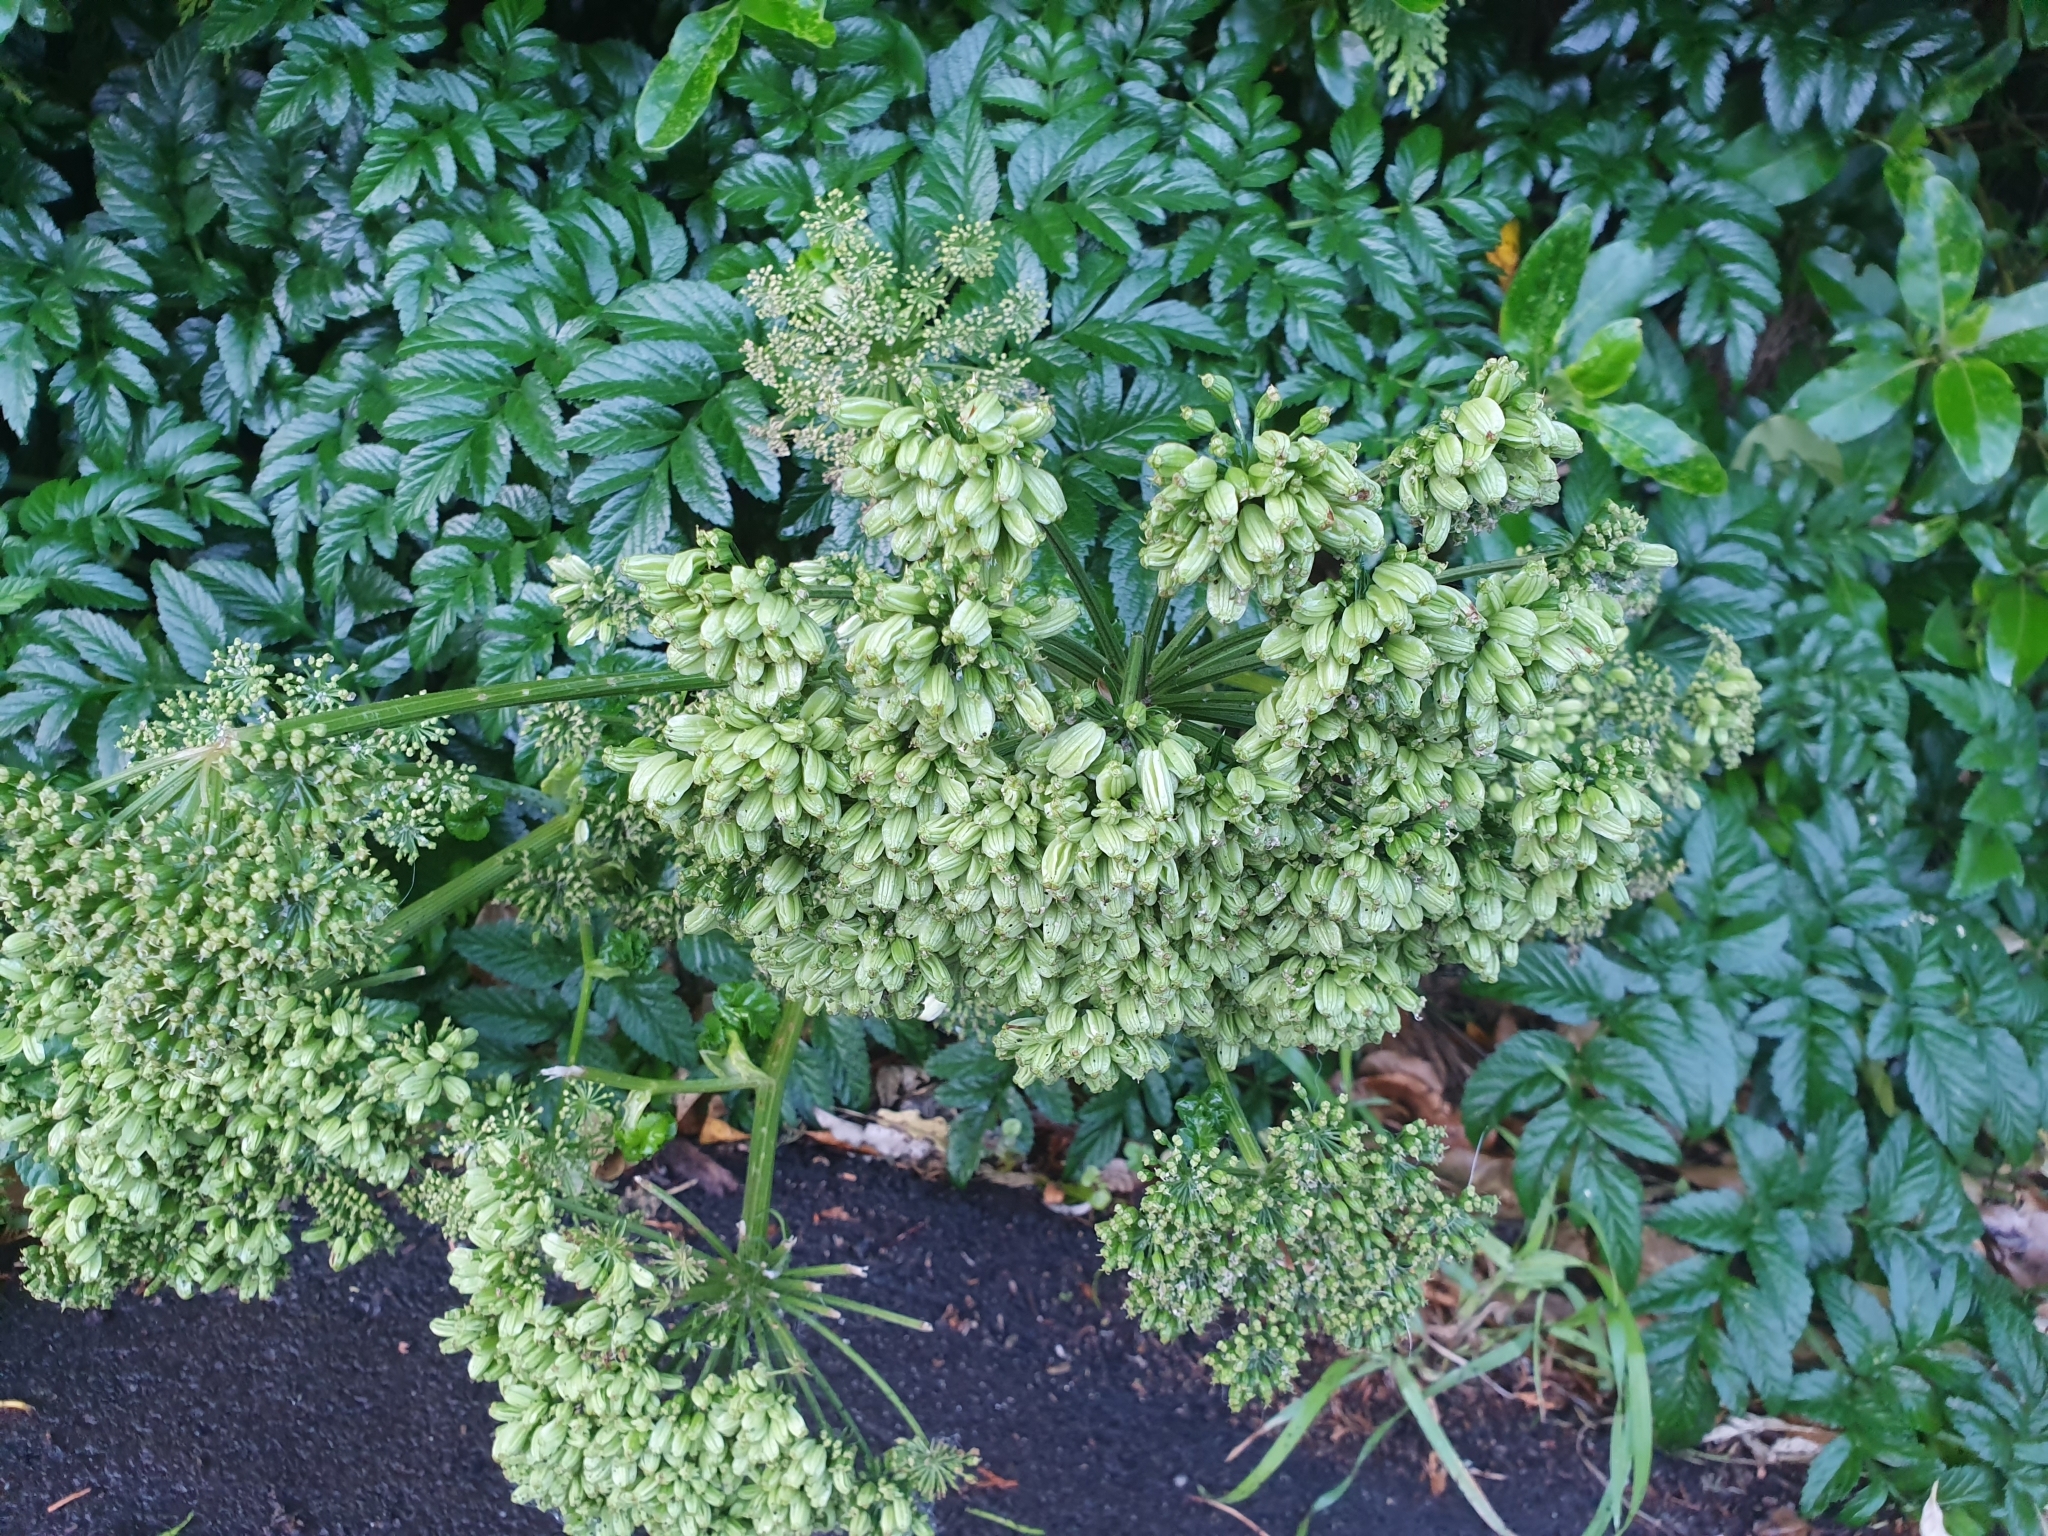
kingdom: Plantae
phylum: Tracheophyta
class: Magnoliopsida
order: Apiales
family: Apiaceae
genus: Angelica
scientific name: Angelica pachycarpa
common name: Portuguese angelica
